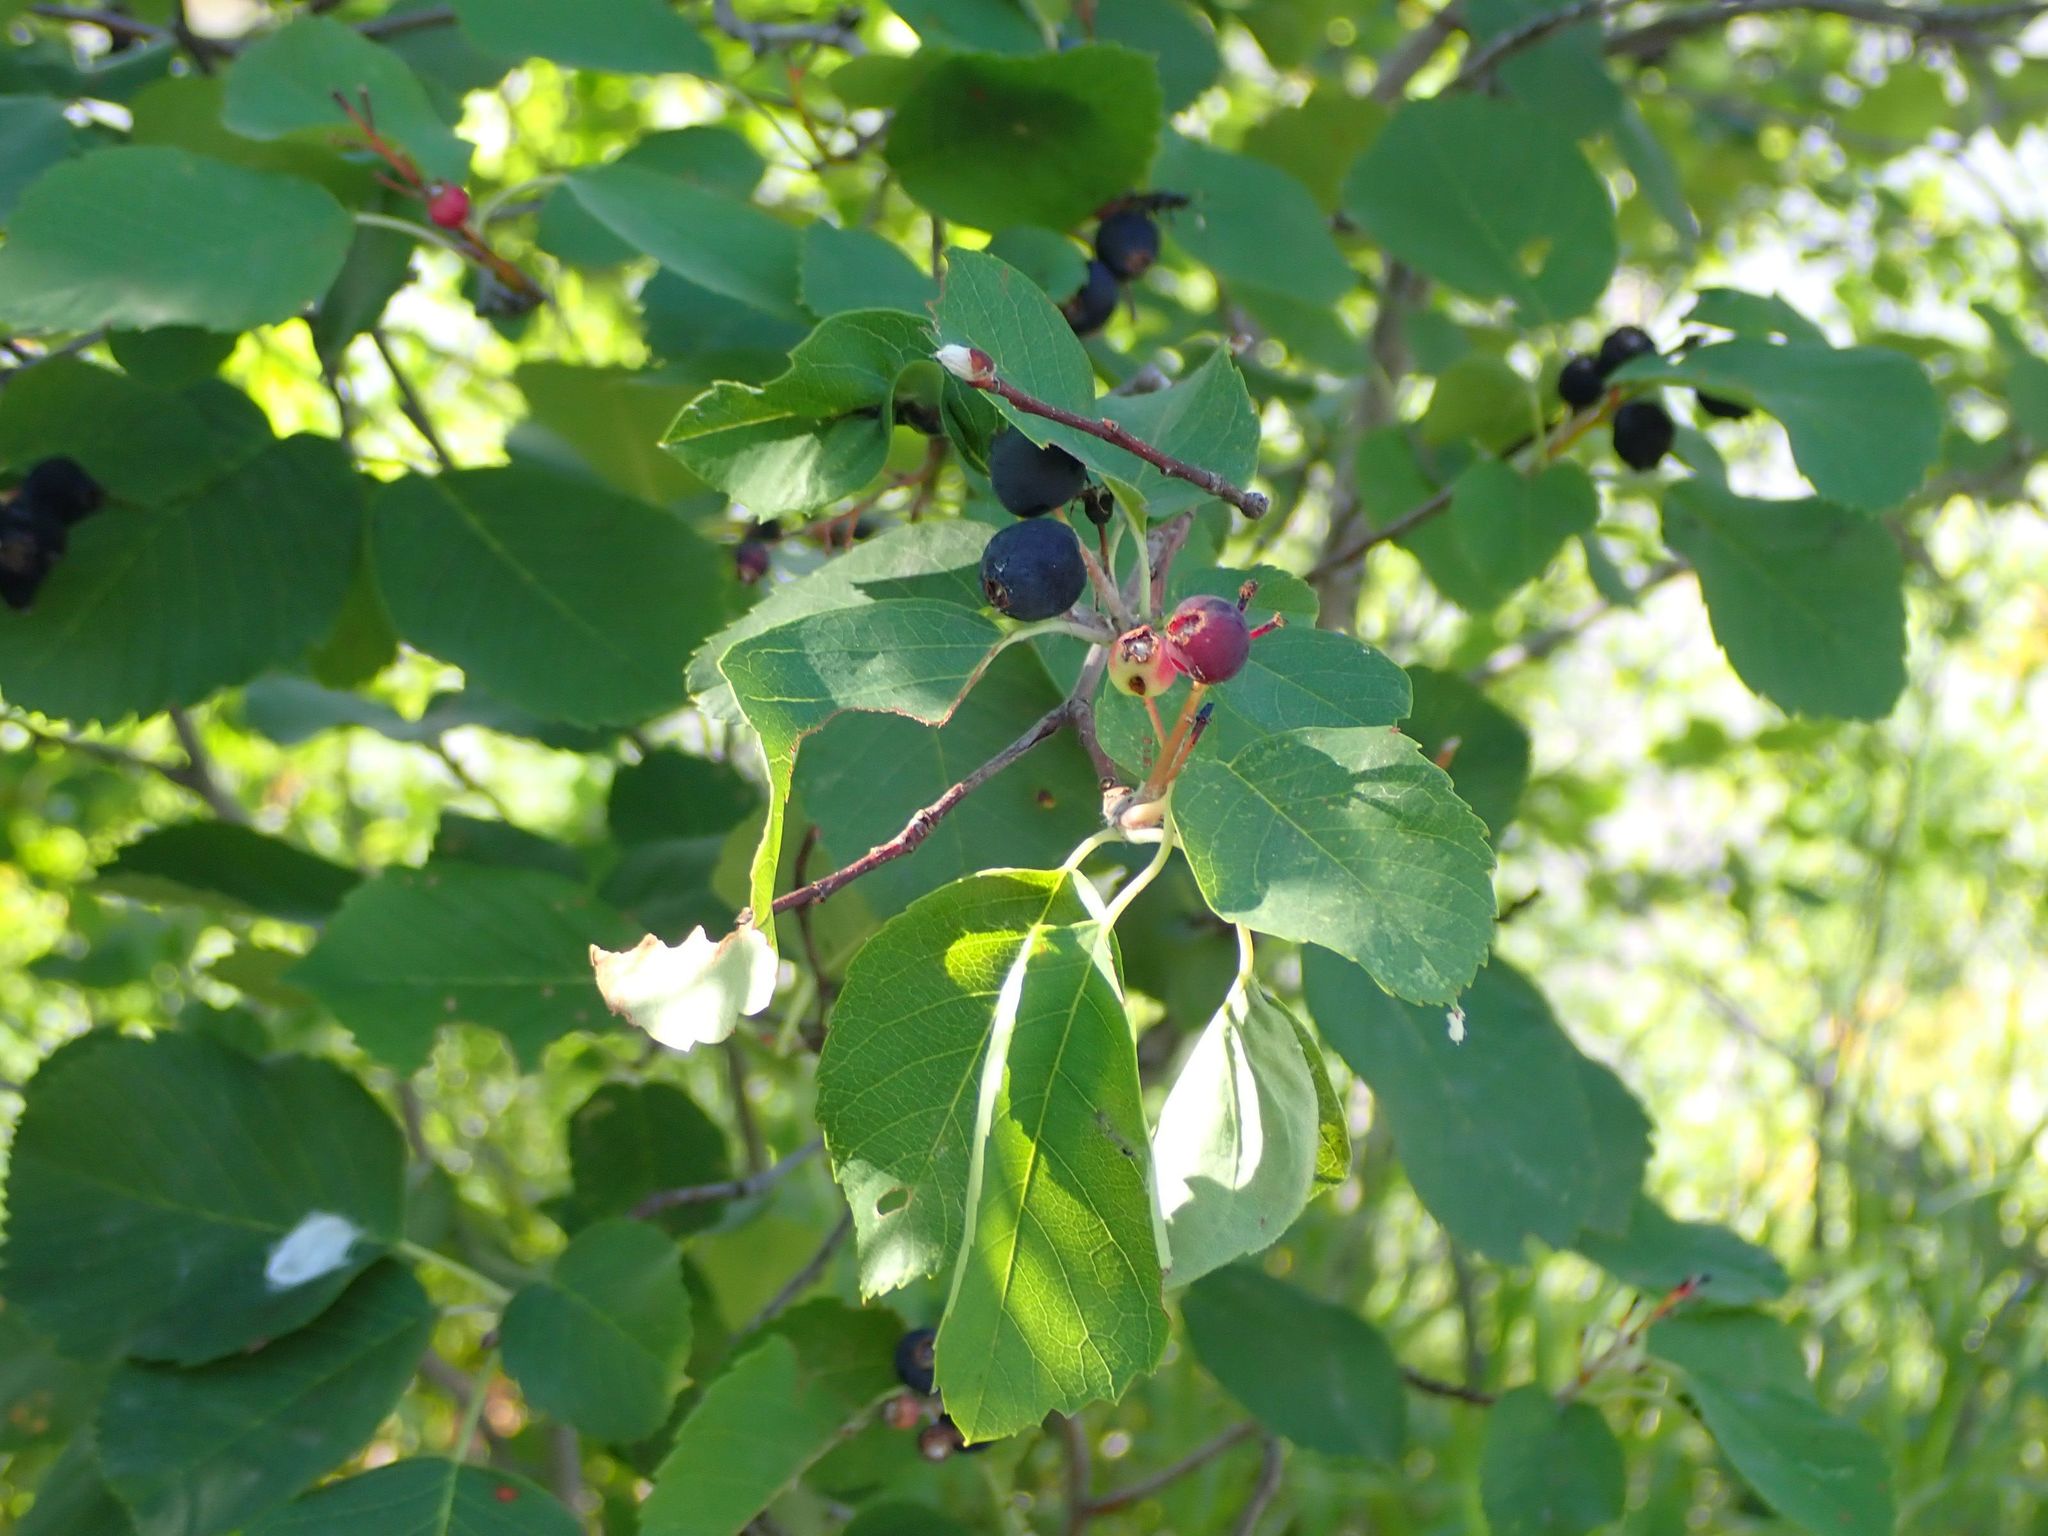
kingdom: Plantae
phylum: Tracheophyta
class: Magnoliopsida
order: Rosales
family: Rosaceae
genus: Amelanchier
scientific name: Amelanchier alnifolia
